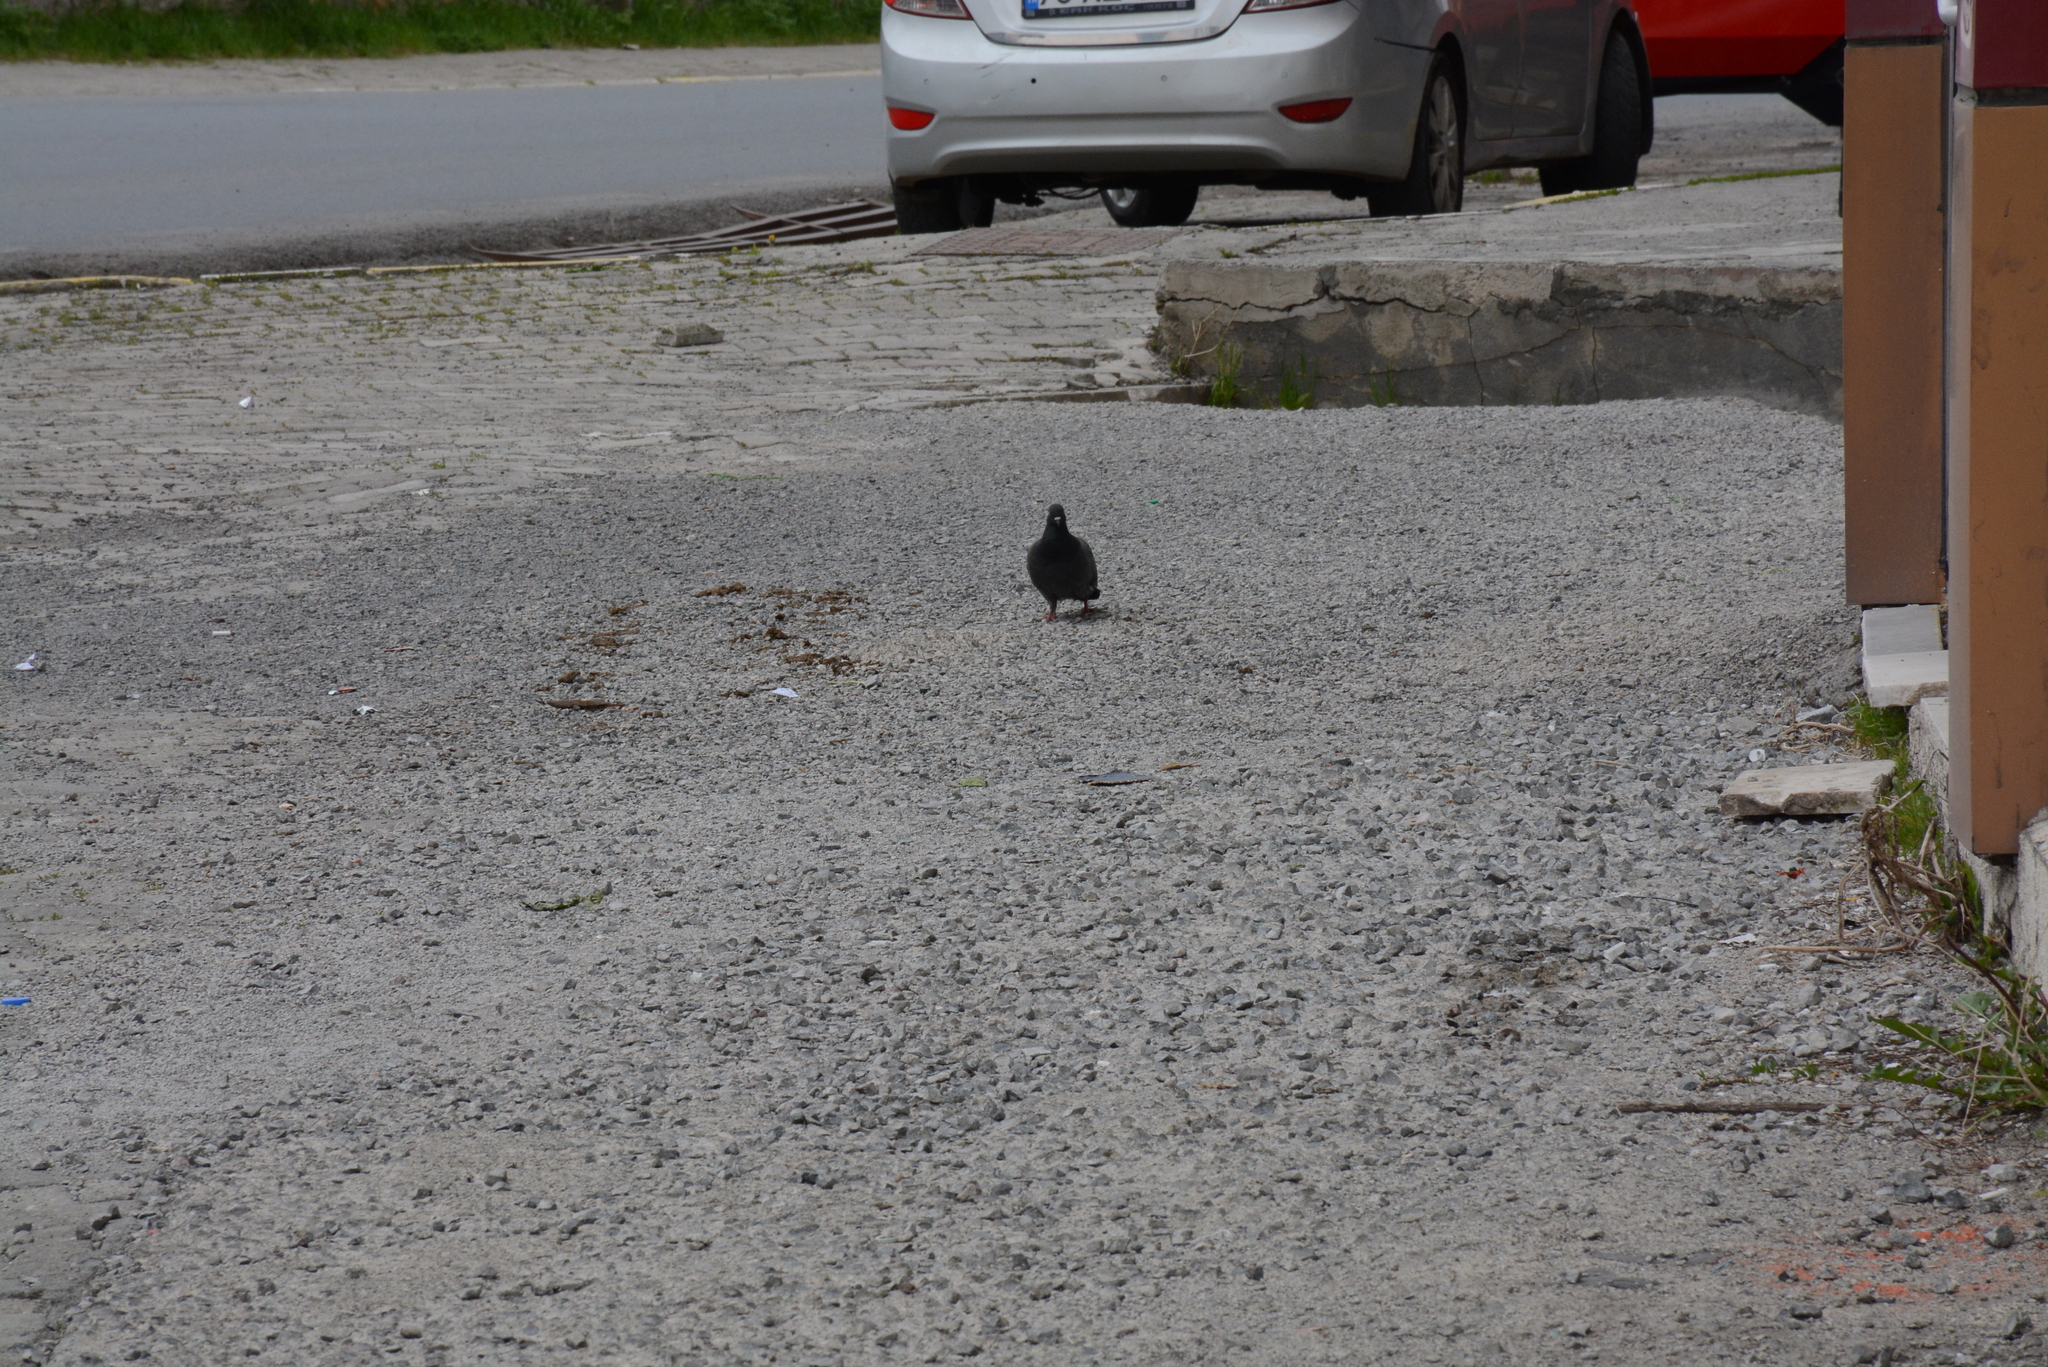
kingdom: Animalia
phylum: Chordata
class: Aves
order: Columbiformes
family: Columbidae
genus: Columba
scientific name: Columba livia
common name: Rock pigeon
